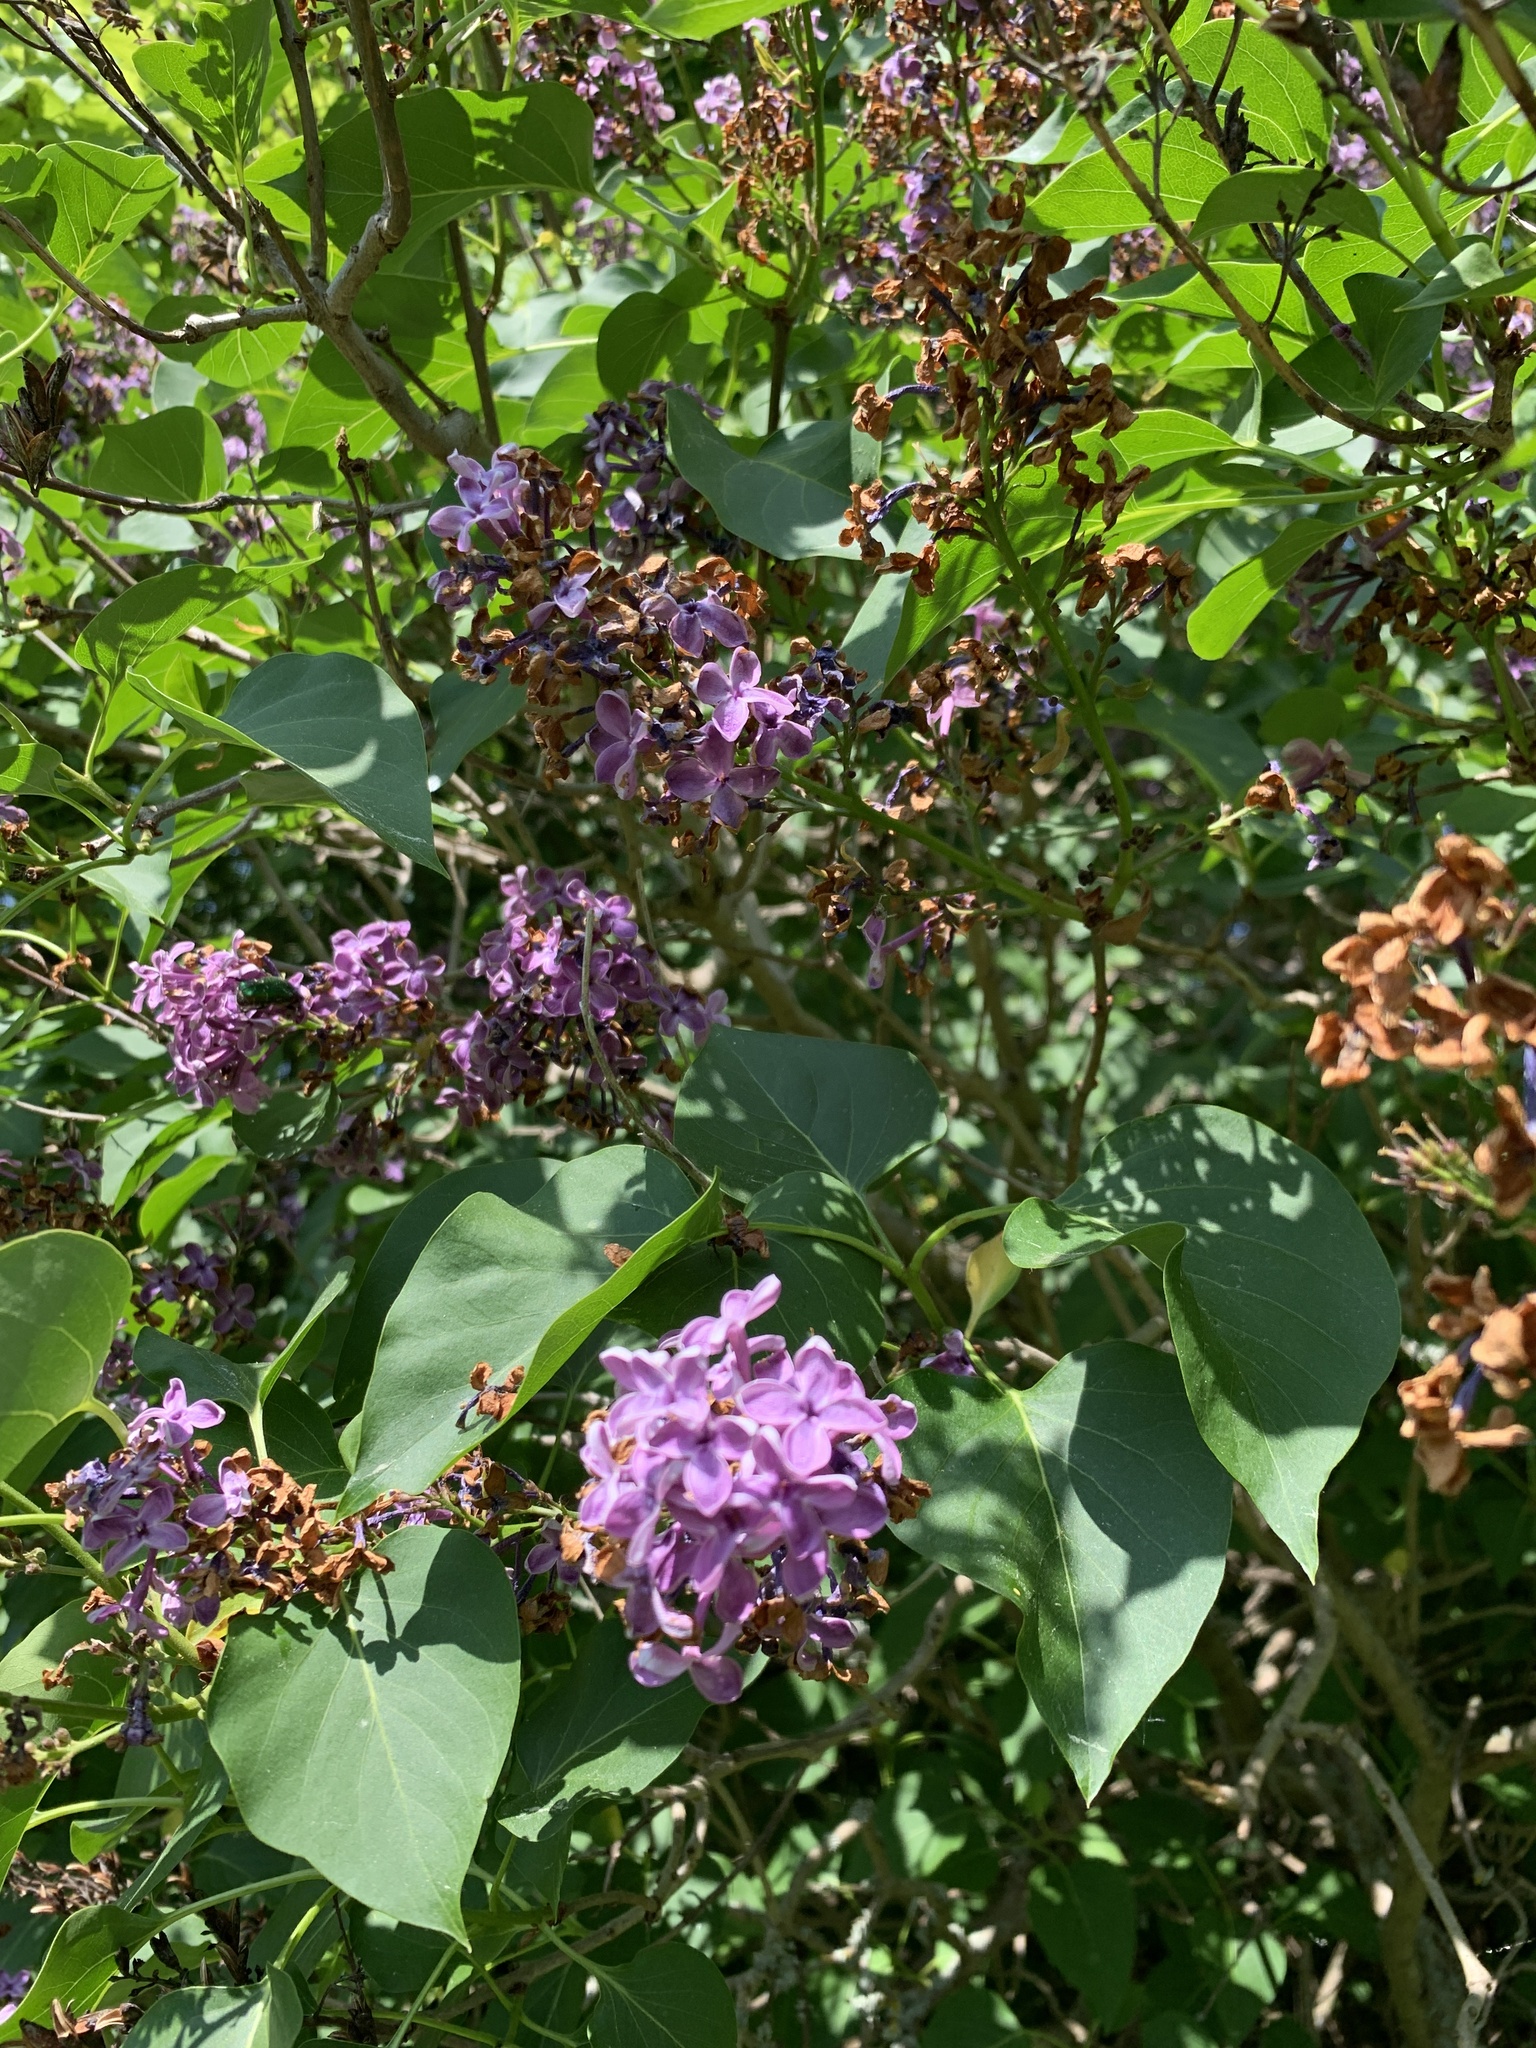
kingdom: Plantae
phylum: Tracheophyta
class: Magnoliopsida
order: Lamiales
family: Oleaceae
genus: Syringa
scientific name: Syringa vulgaris
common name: Common lilac
